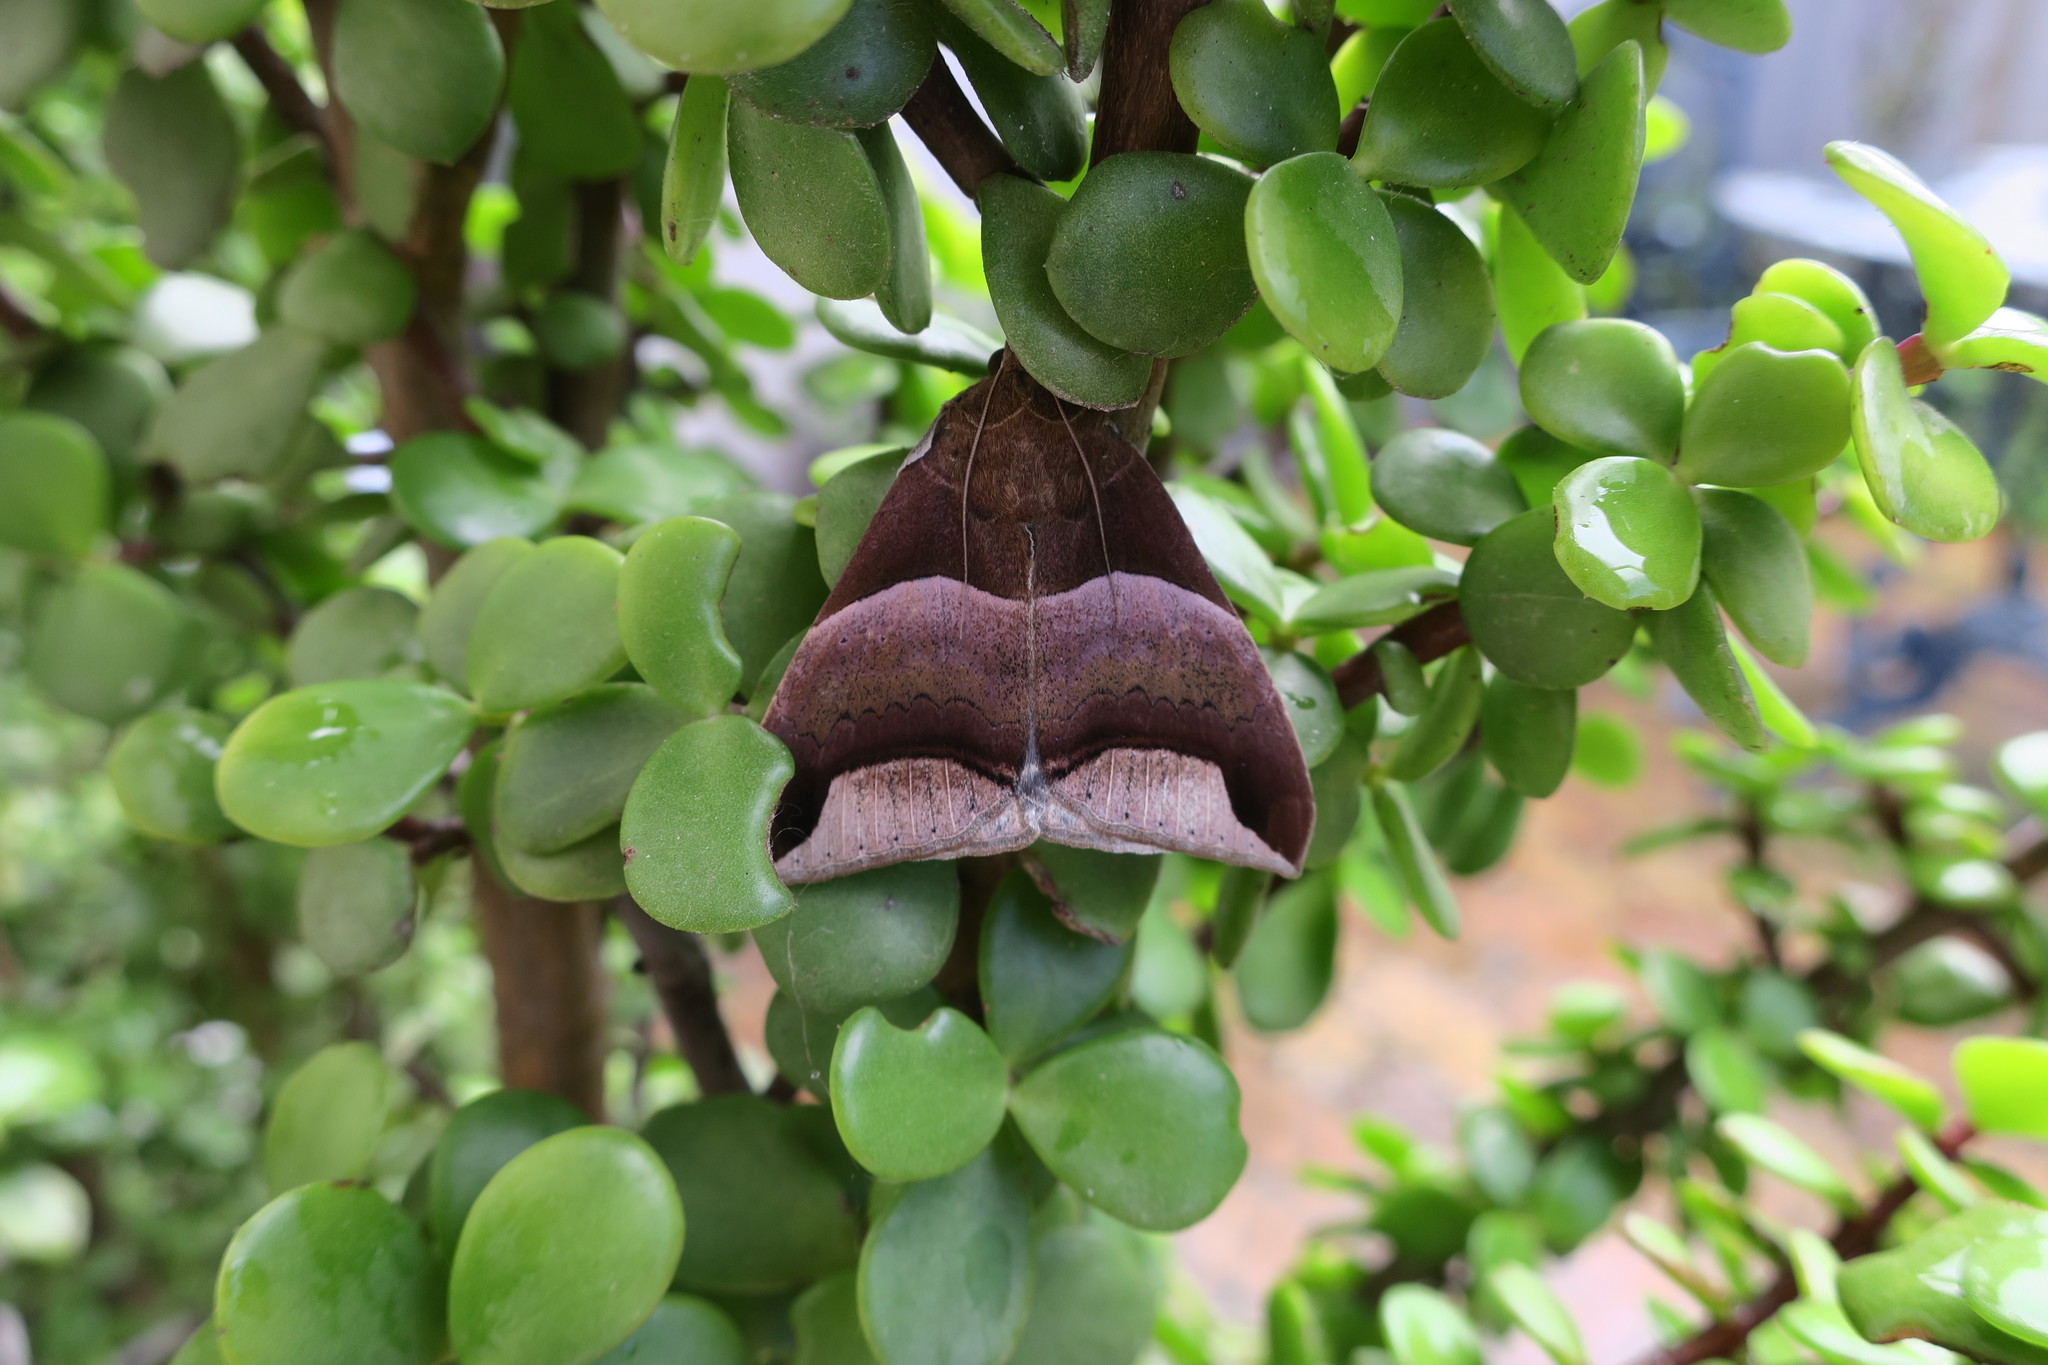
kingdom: Animalia
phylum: Arthropoda
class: Insecta
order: Lepidoptera
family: Erebidae
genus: Achaea
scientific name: Achaea echo
